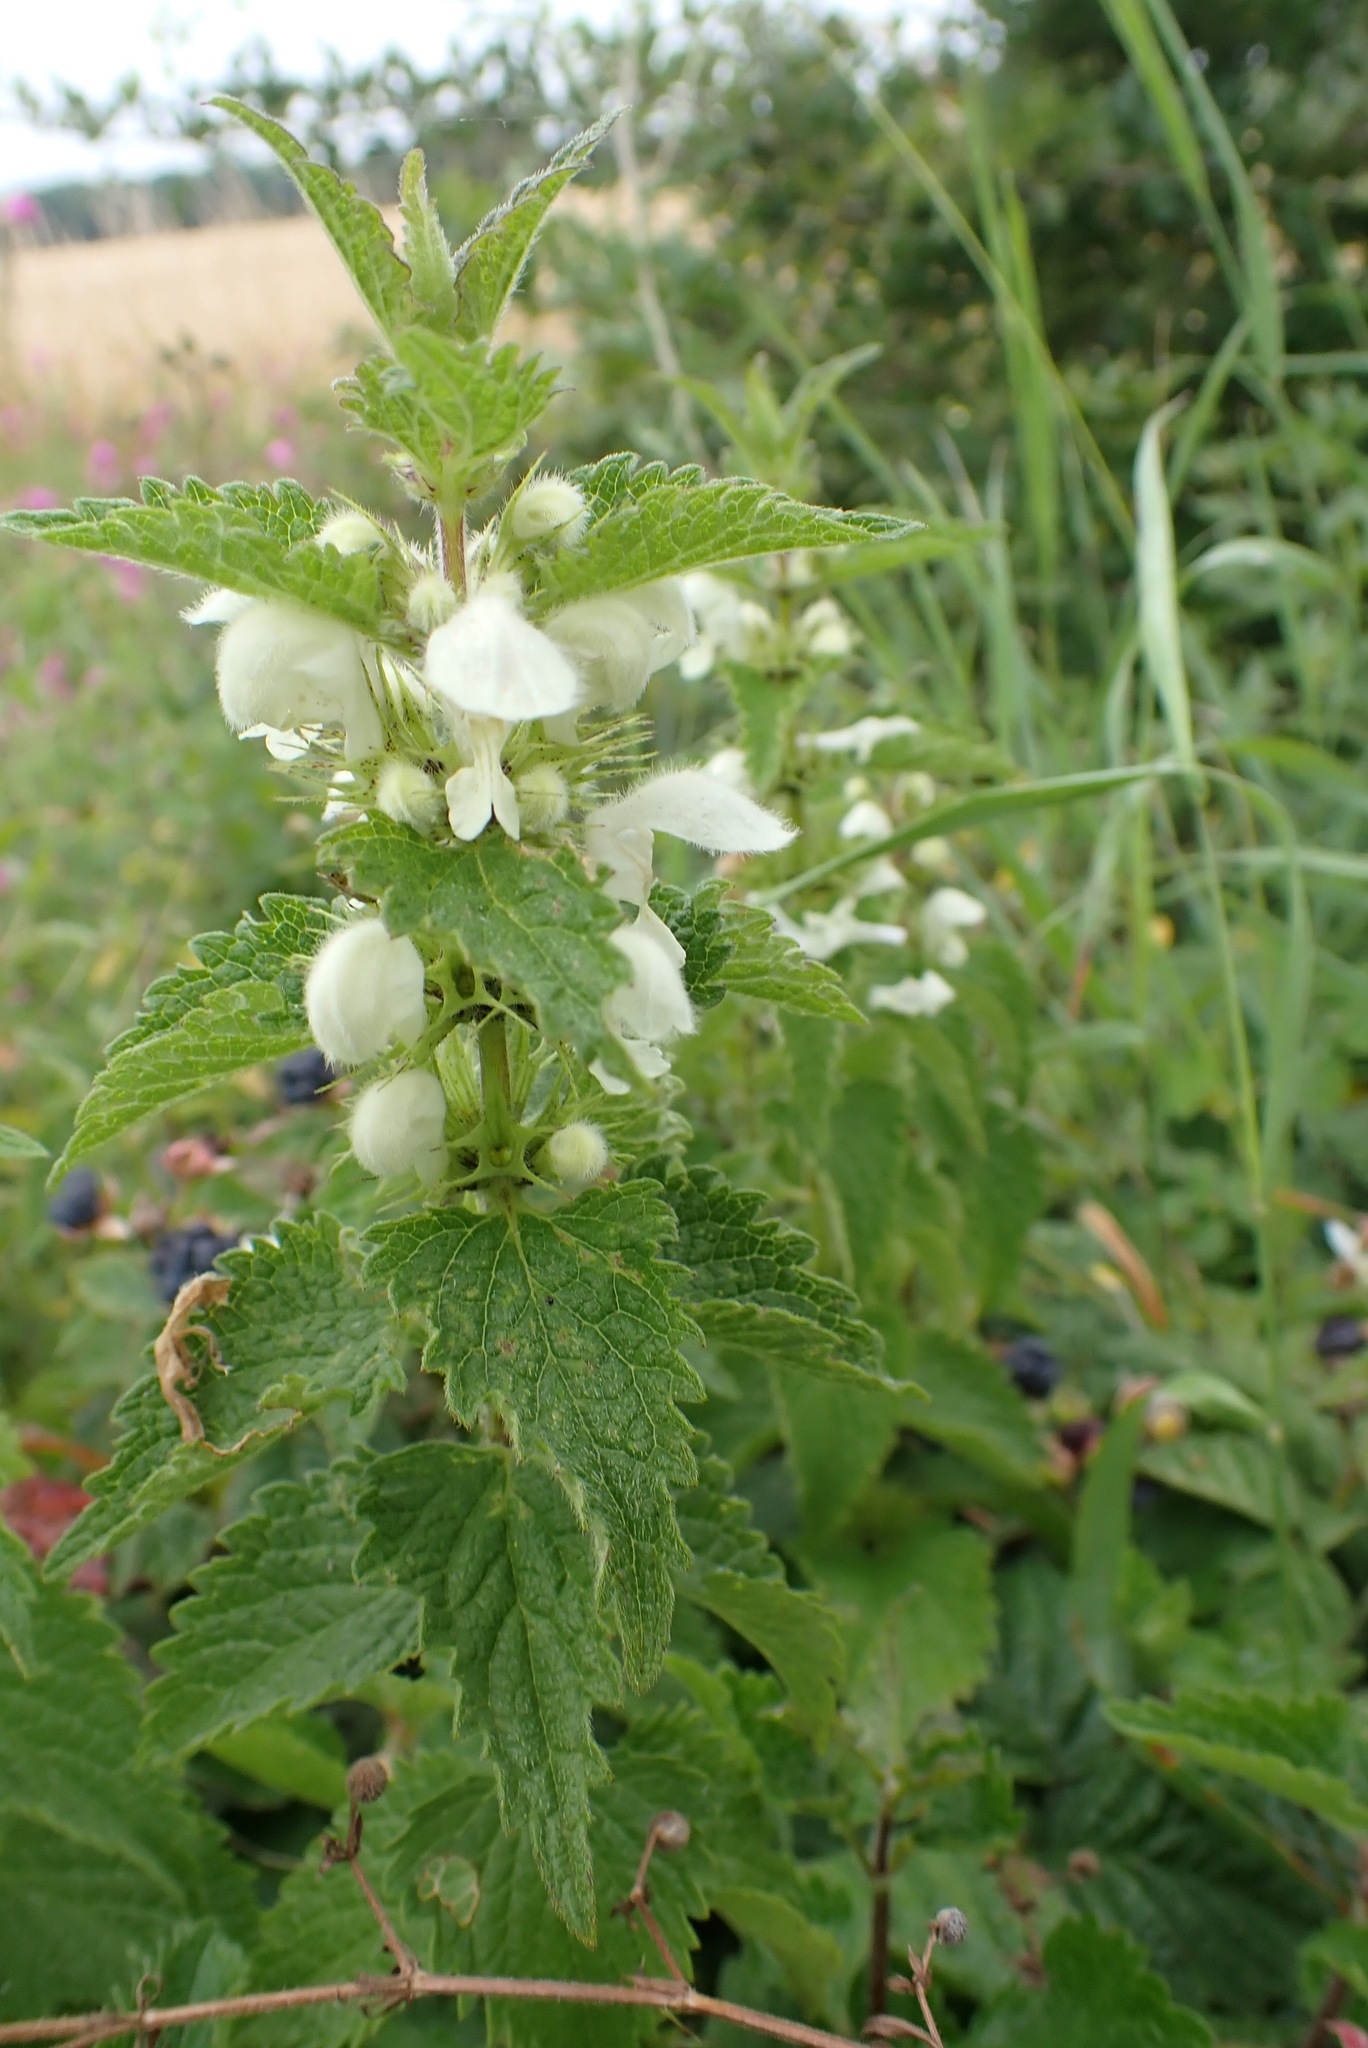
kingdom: Plantae
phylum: Tracheophyta
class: Magnoliopsida
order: Lamiales
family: Lamiaceae
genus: Lamium
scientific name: Lamium album
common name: White dead-nettle
